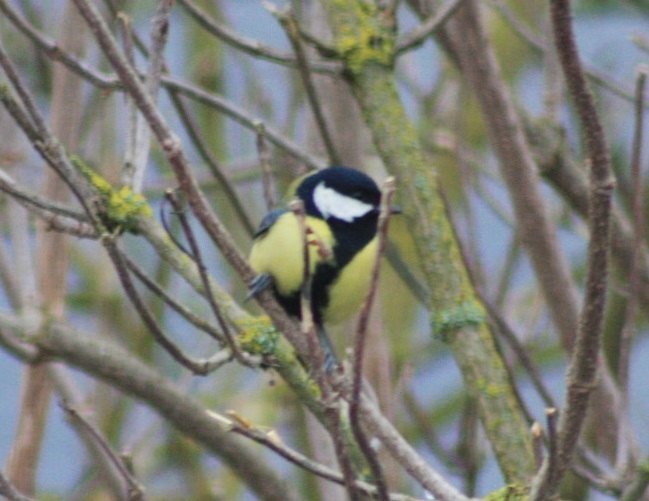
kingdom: Animalia
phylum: Chordata
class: Aves
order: Passeriformes
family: Paridae
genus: Parus
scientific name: Parus major
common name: Great tit
